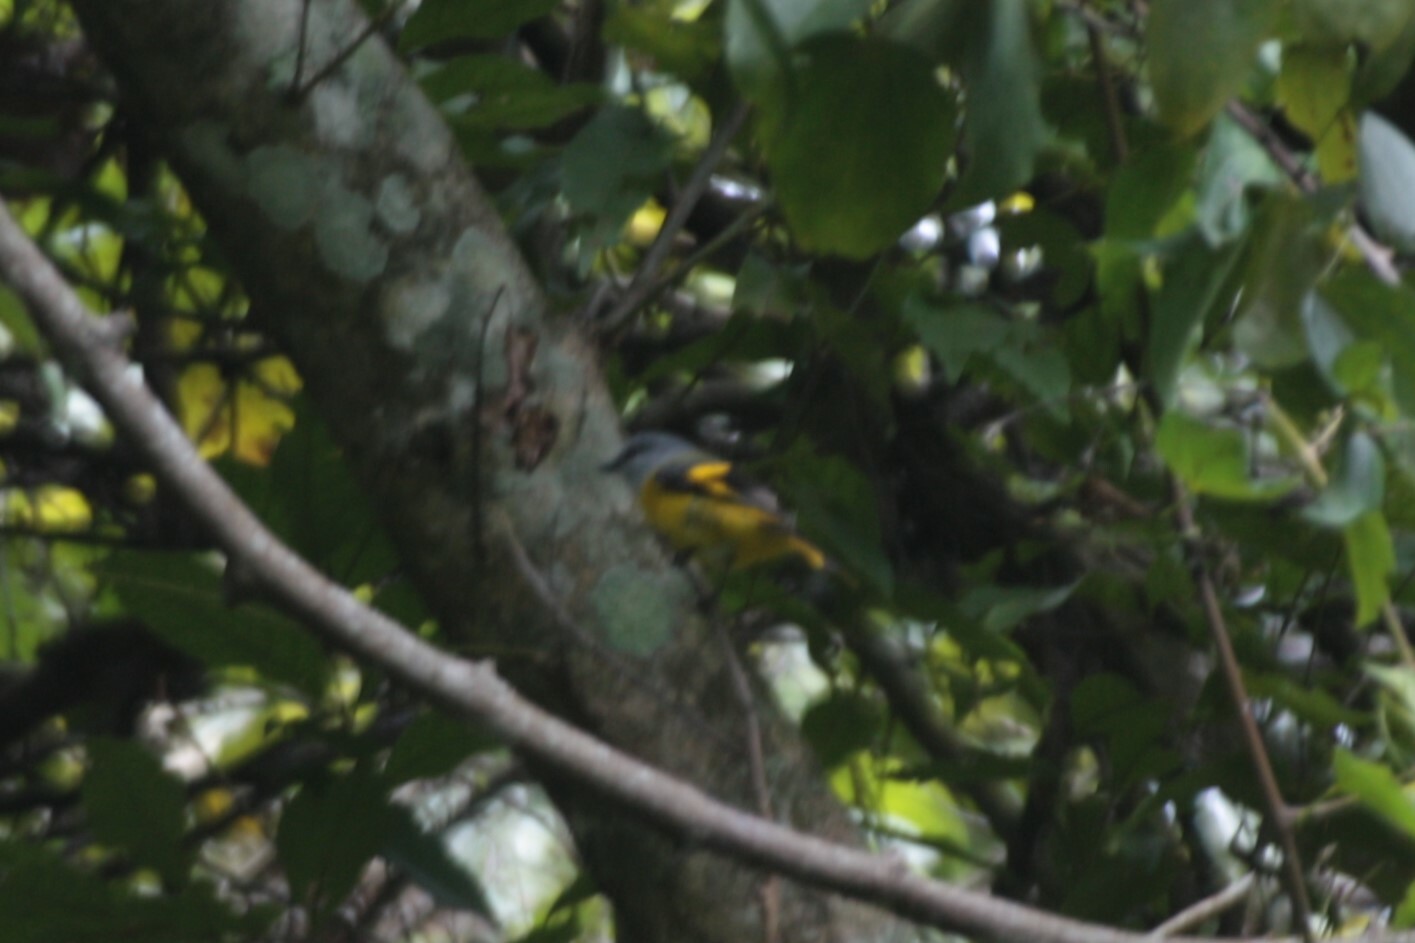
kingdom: Animalia
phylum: Chordata
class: Aves
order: Passeriformes
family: Campephagidae
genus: Pericrocotus
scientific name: Pericrocotus solaris
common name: Grey-chinned minivet
